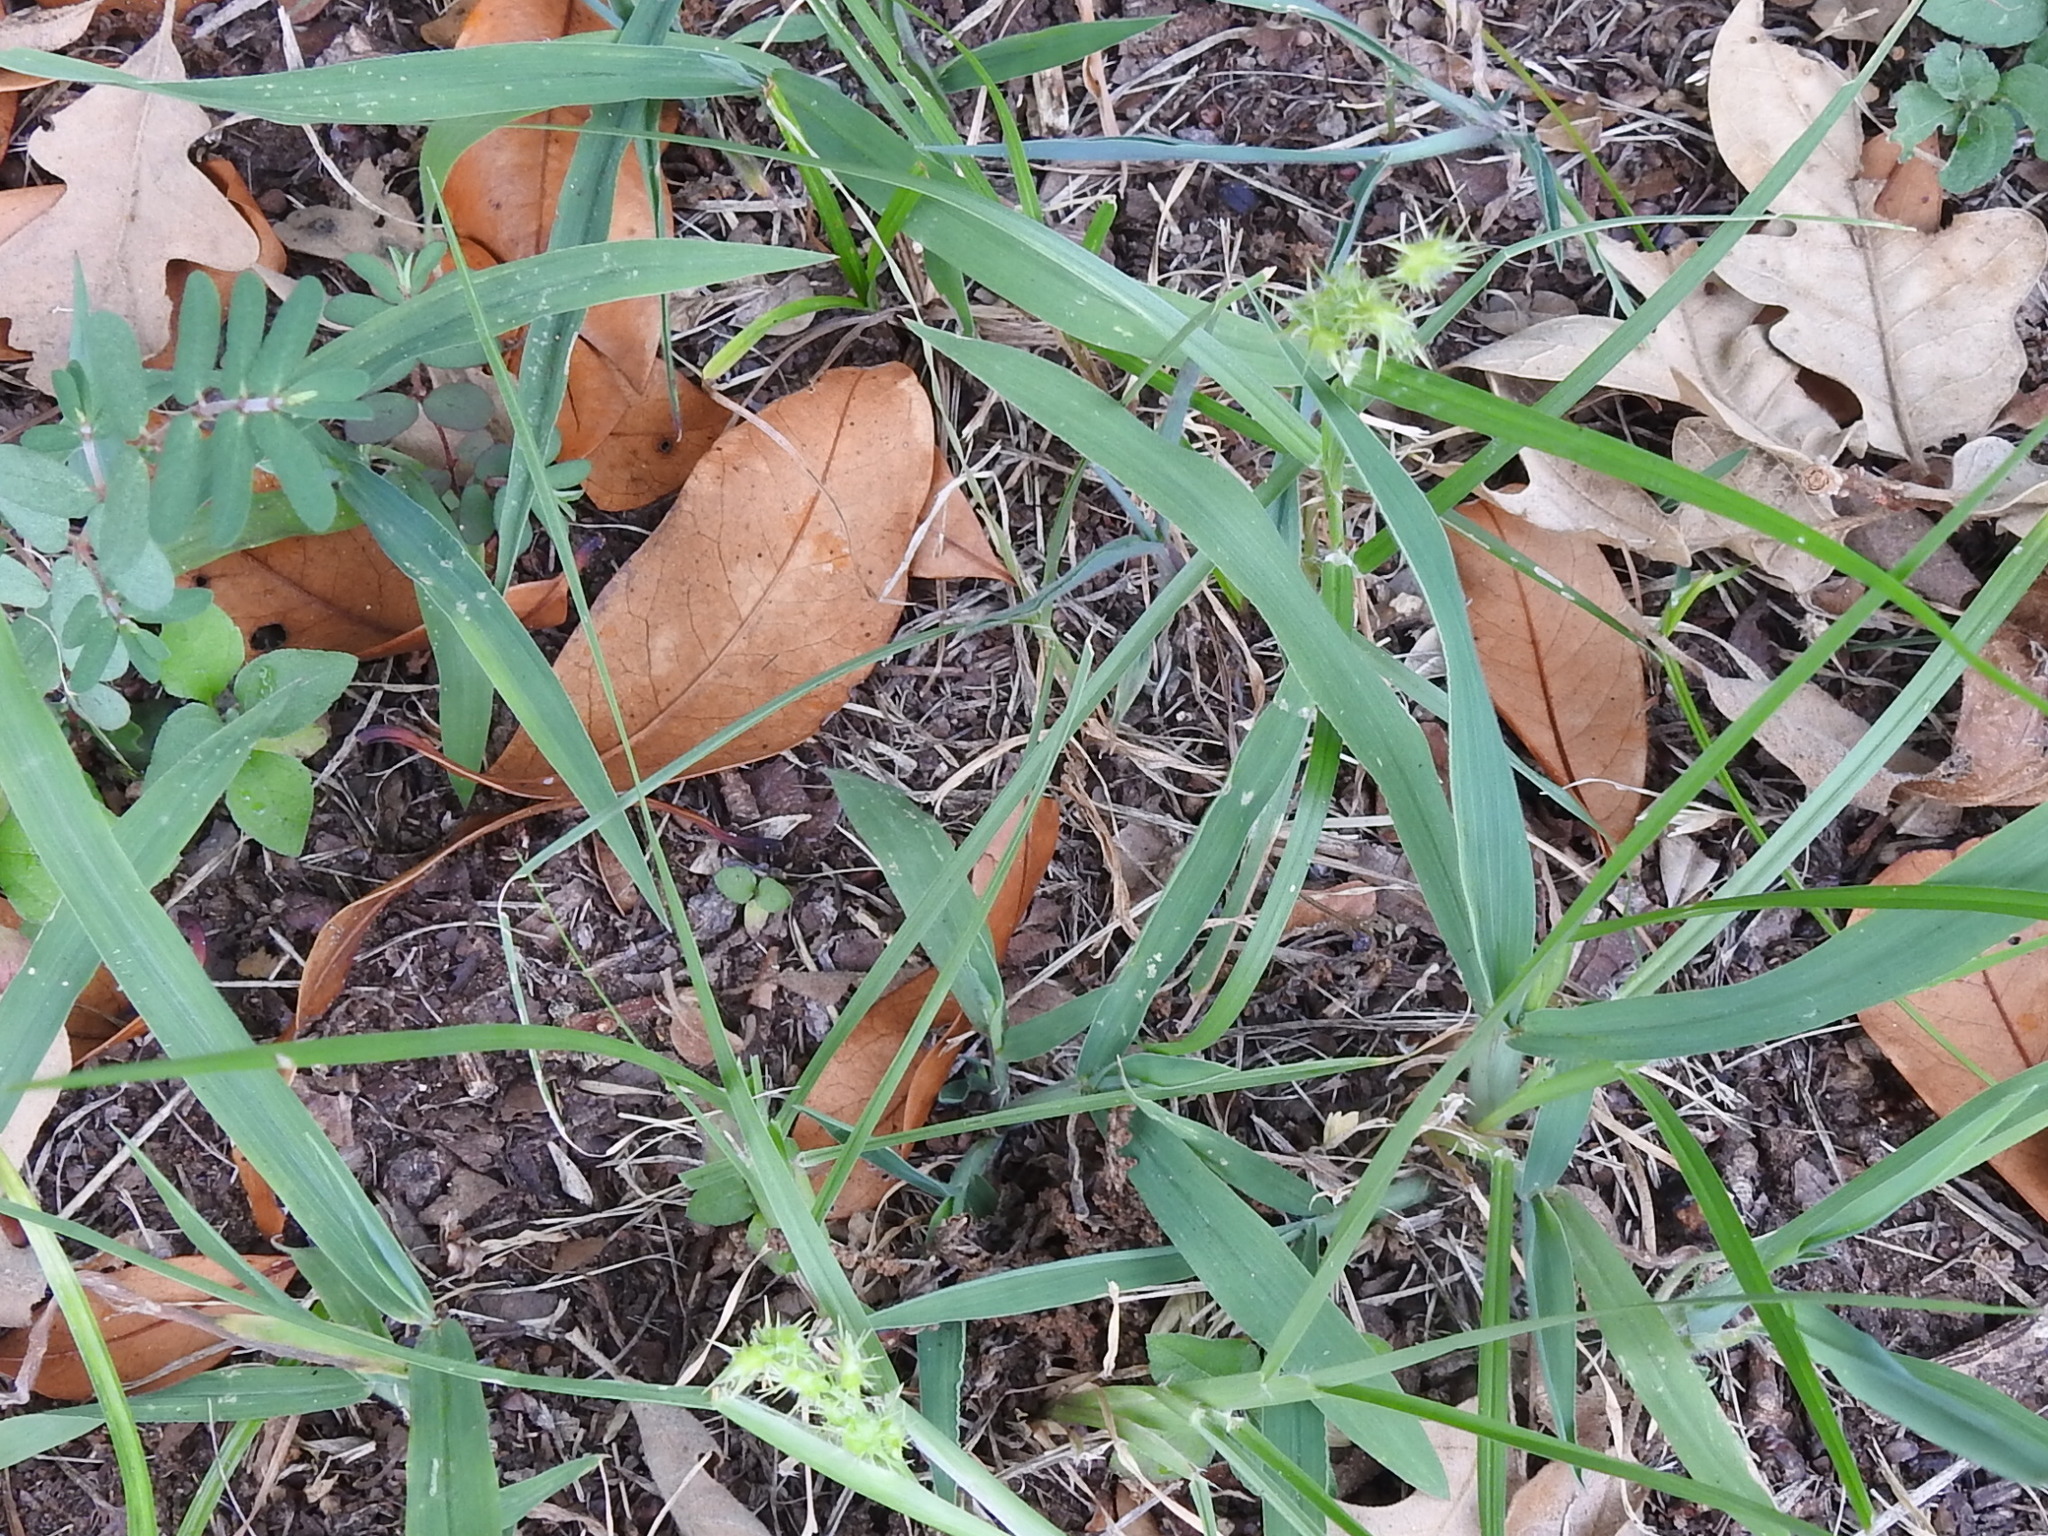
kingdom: Plantae
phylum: Tracheophyta
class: Liliopsida
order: Poales
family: Poaceae
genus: Cenchrus
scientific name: Cenchrus spinifex
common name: Coast sandbur
